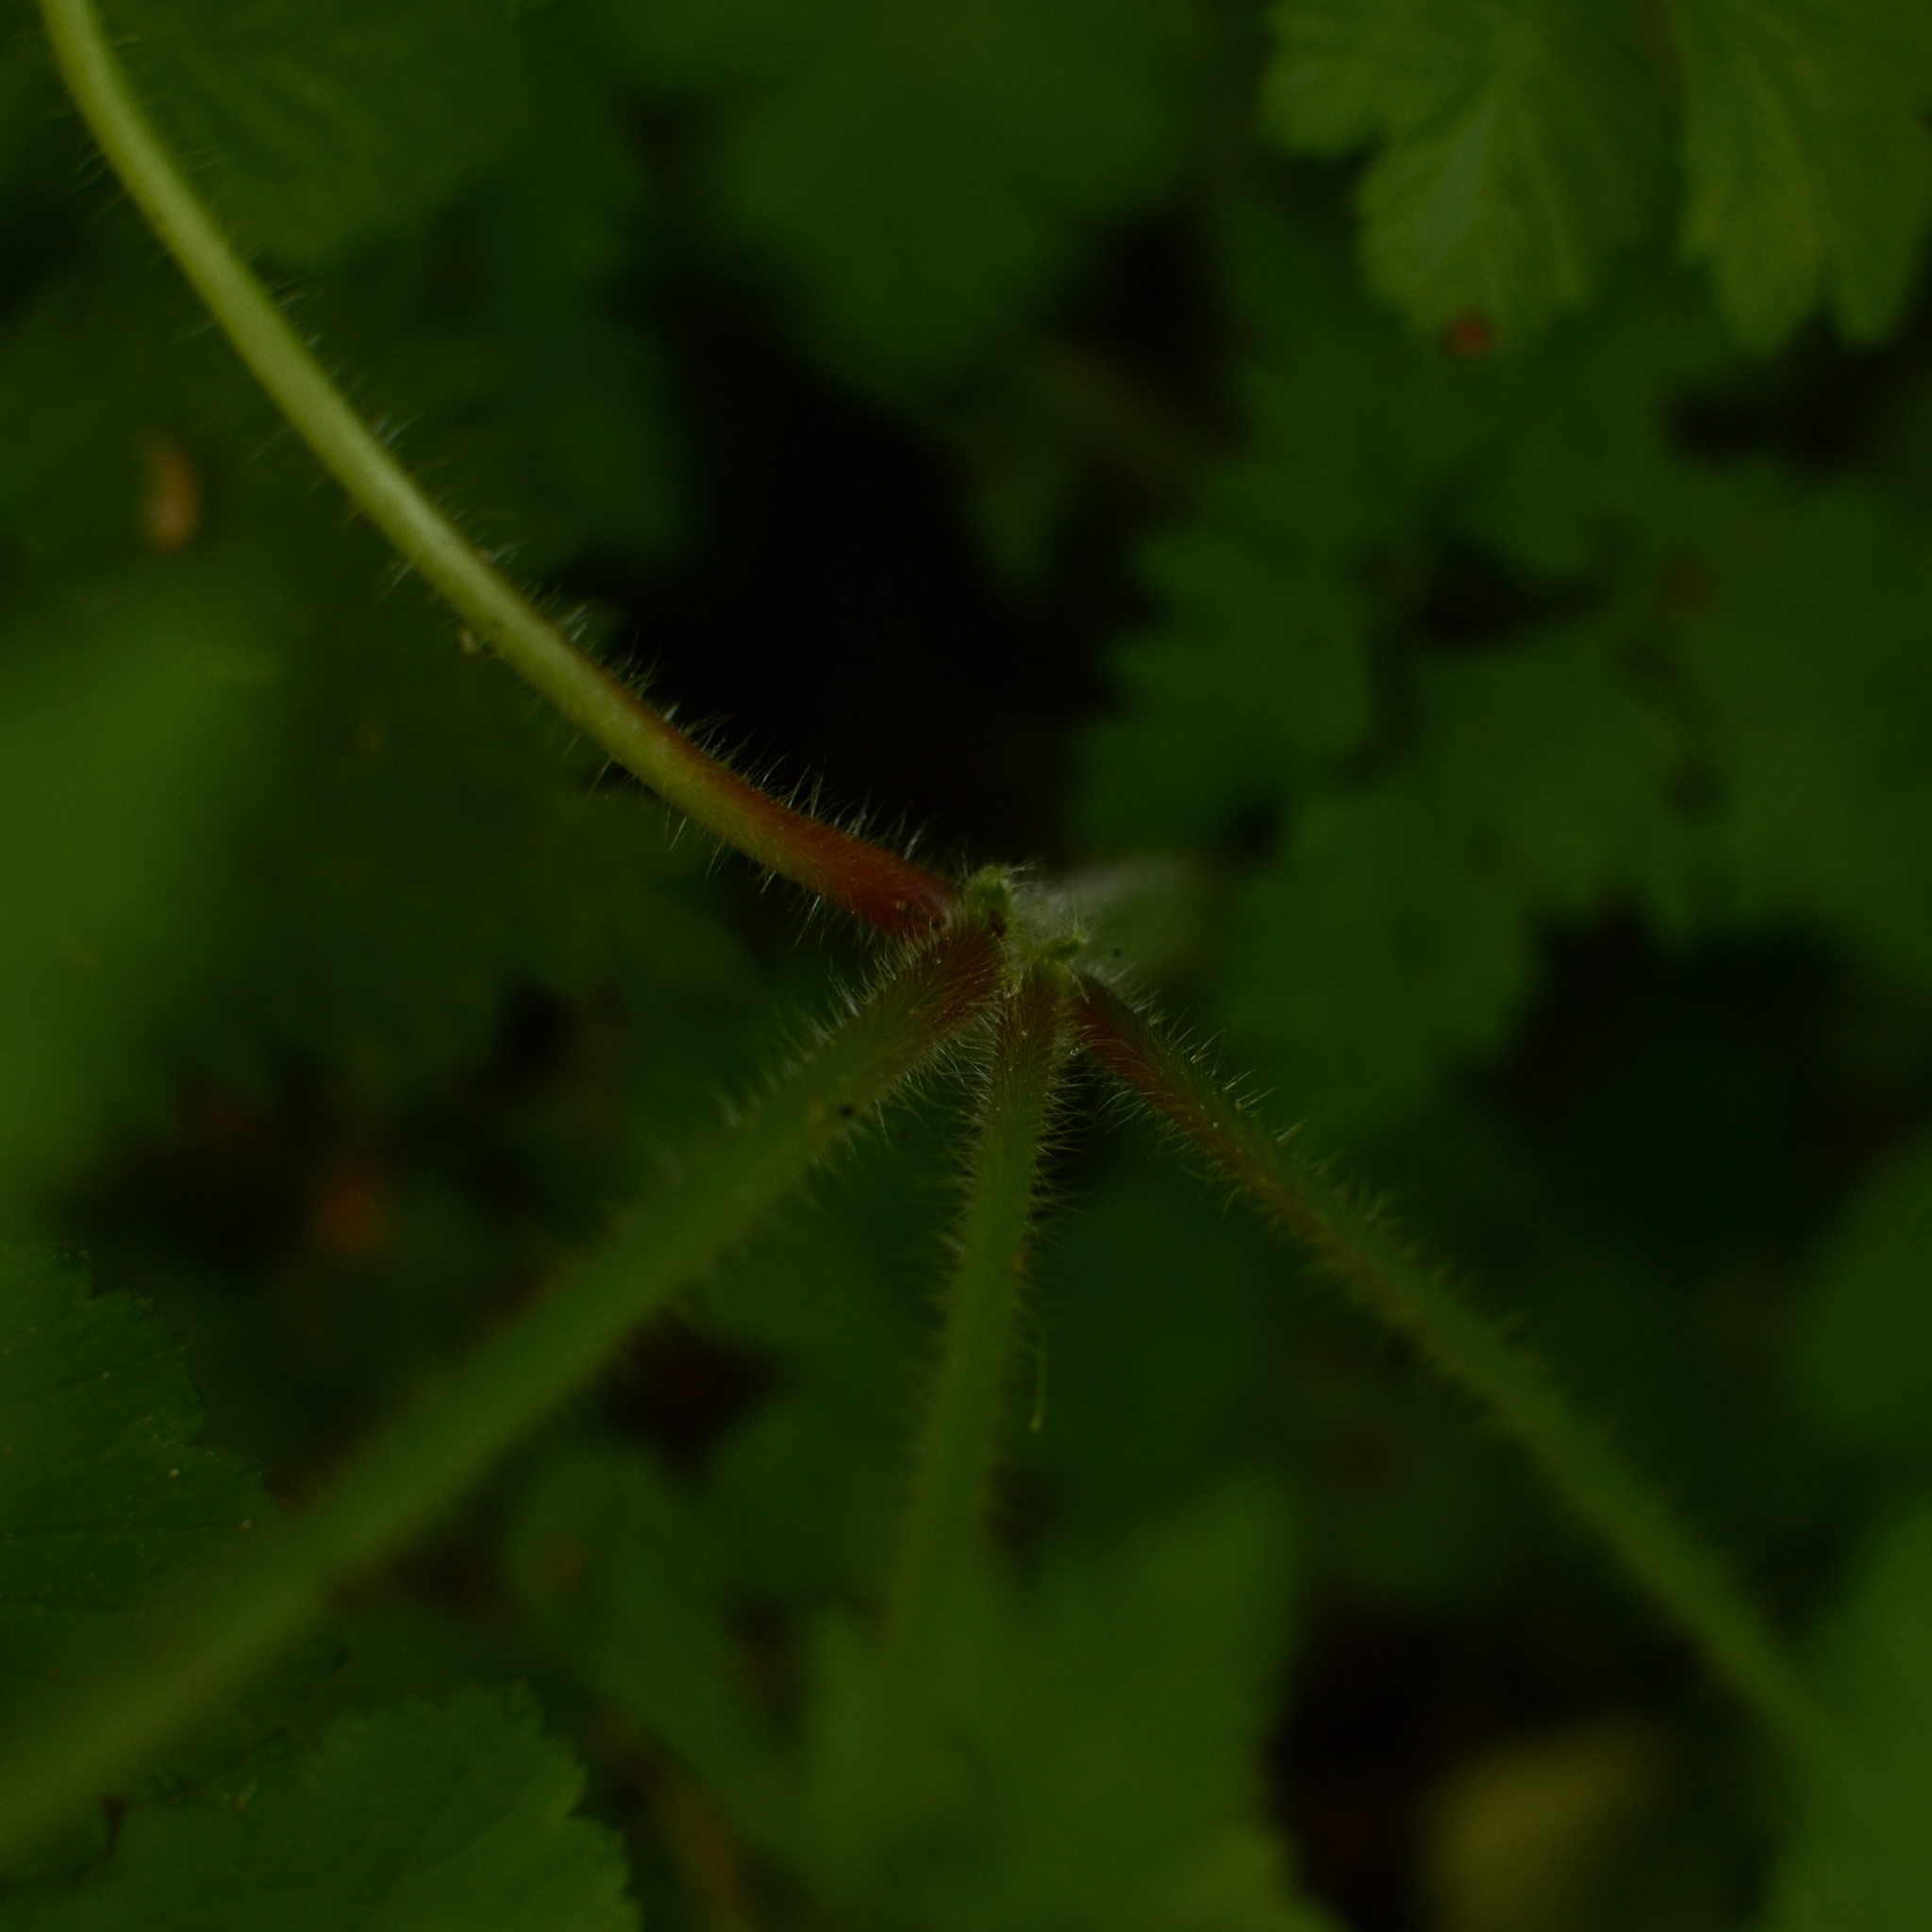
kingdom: Plantae
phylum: Tracheophyta
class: Magnoliopsida
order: Geraniales
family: Geraniaceae
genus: Geranium
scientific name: Geranium robertianum
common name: Herb-robert
